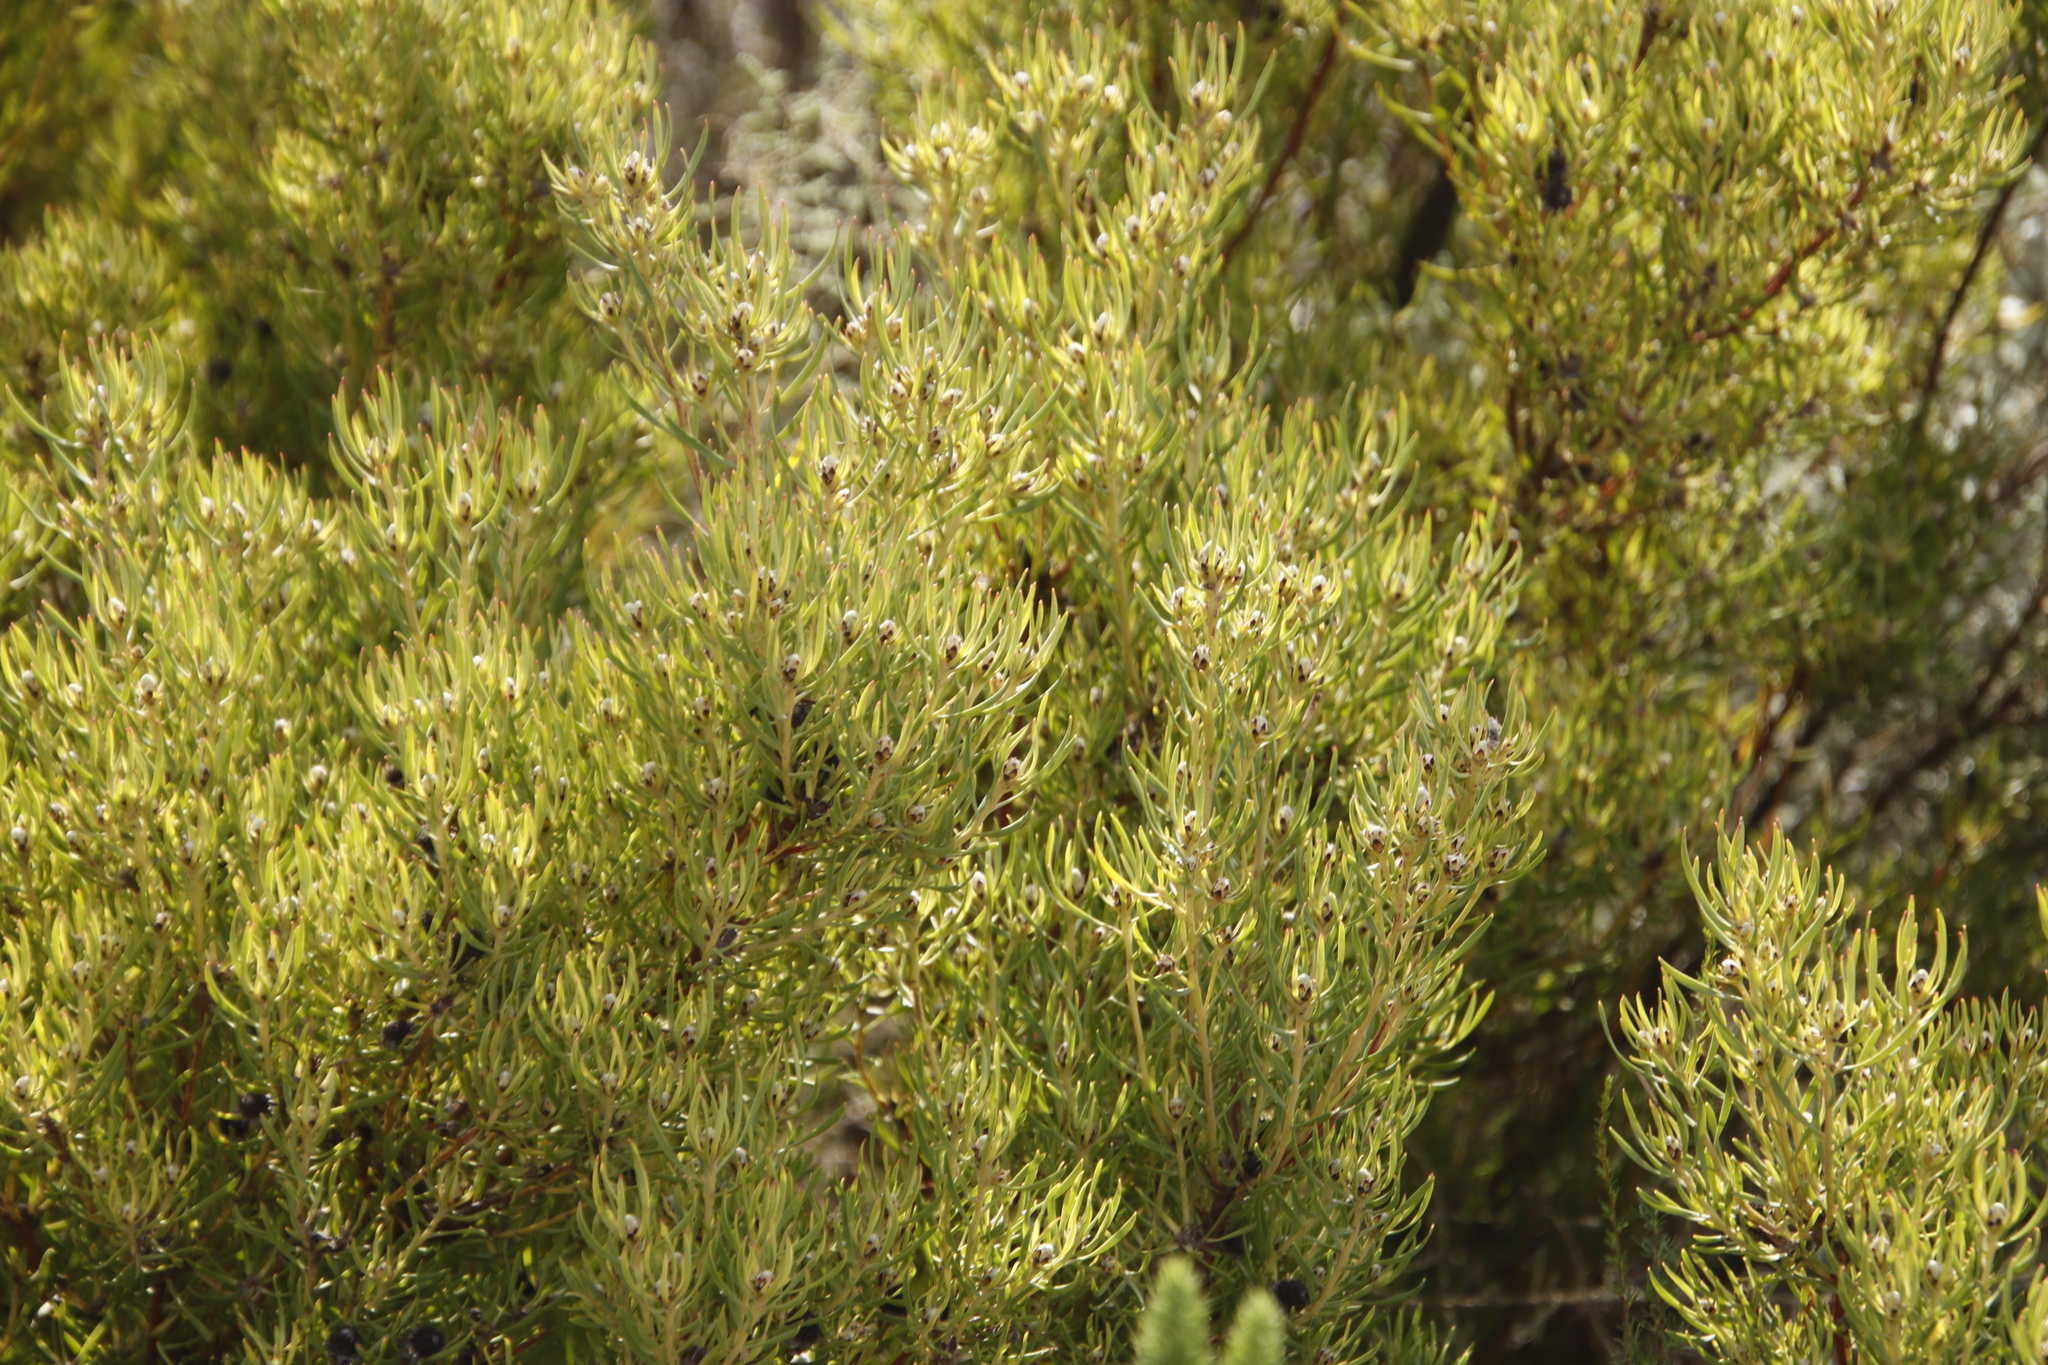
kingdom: Plantae
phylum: Tracheophyta
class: Magnoliopsida
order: Proteales
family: Proteaceae
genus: Leucadendron
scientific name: Leucadendron spissifolium
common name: Spear-leaf conebush
